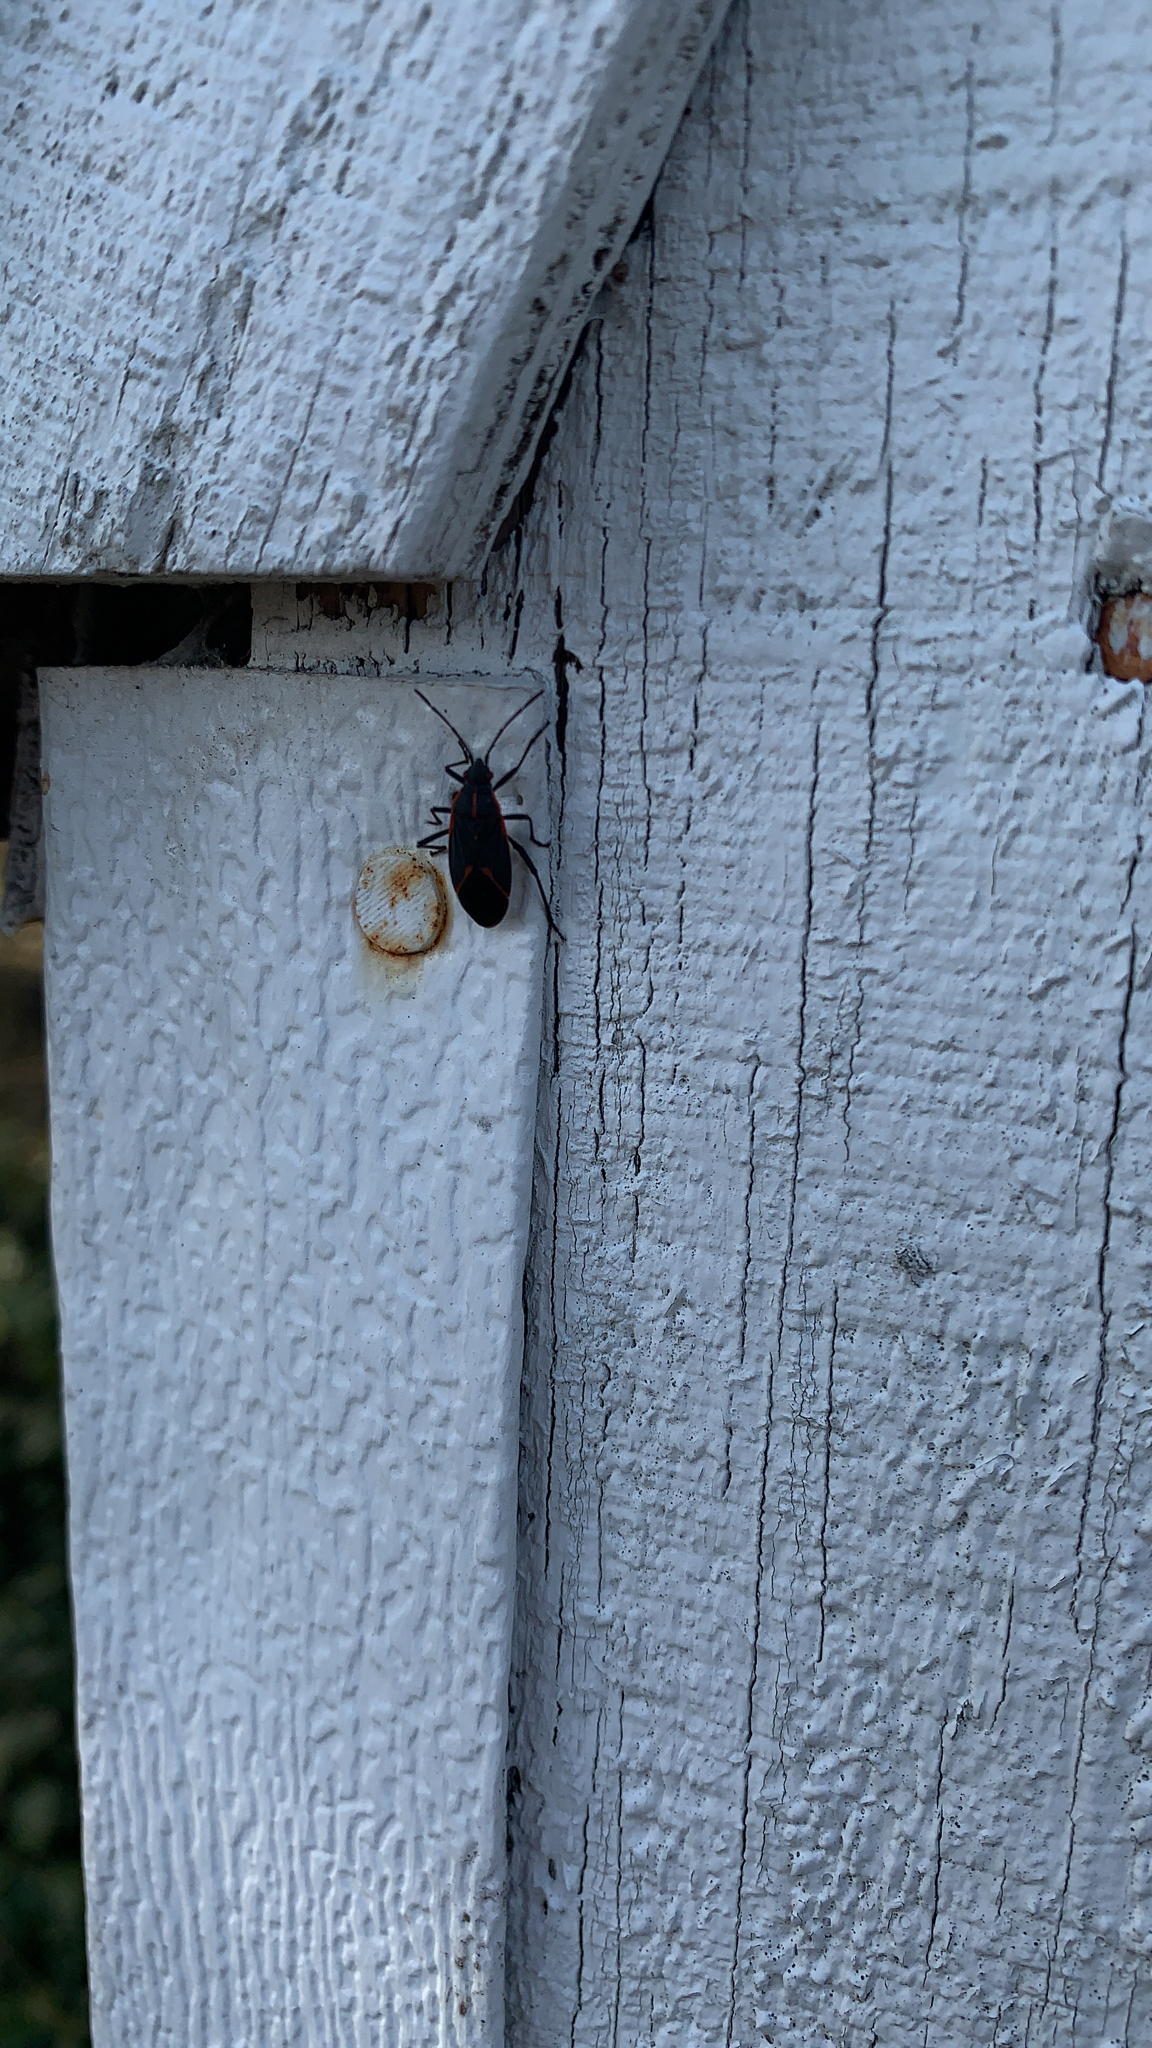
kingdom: Animalia
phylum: Arthropoda
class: Insecta
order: Hemiptera
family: Rhopalidae
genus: Boisea
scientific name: Boisea trivittata
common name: Boxelder bug
